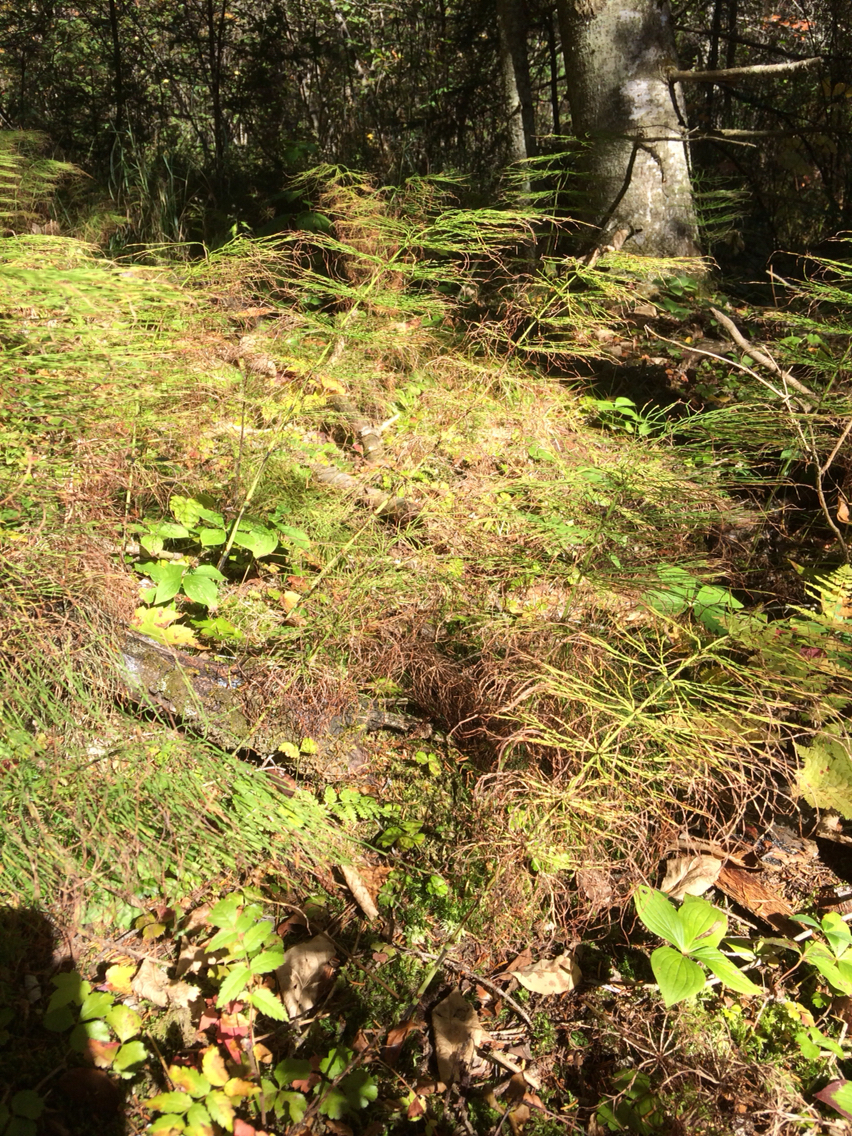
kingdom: Plantae
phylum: Tracheophyta
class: Polypodiopsida
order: Equisetales
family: Equisetaceae
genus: Equisetum
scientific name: Equisetum sylvaticum
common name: Wood horsetail
